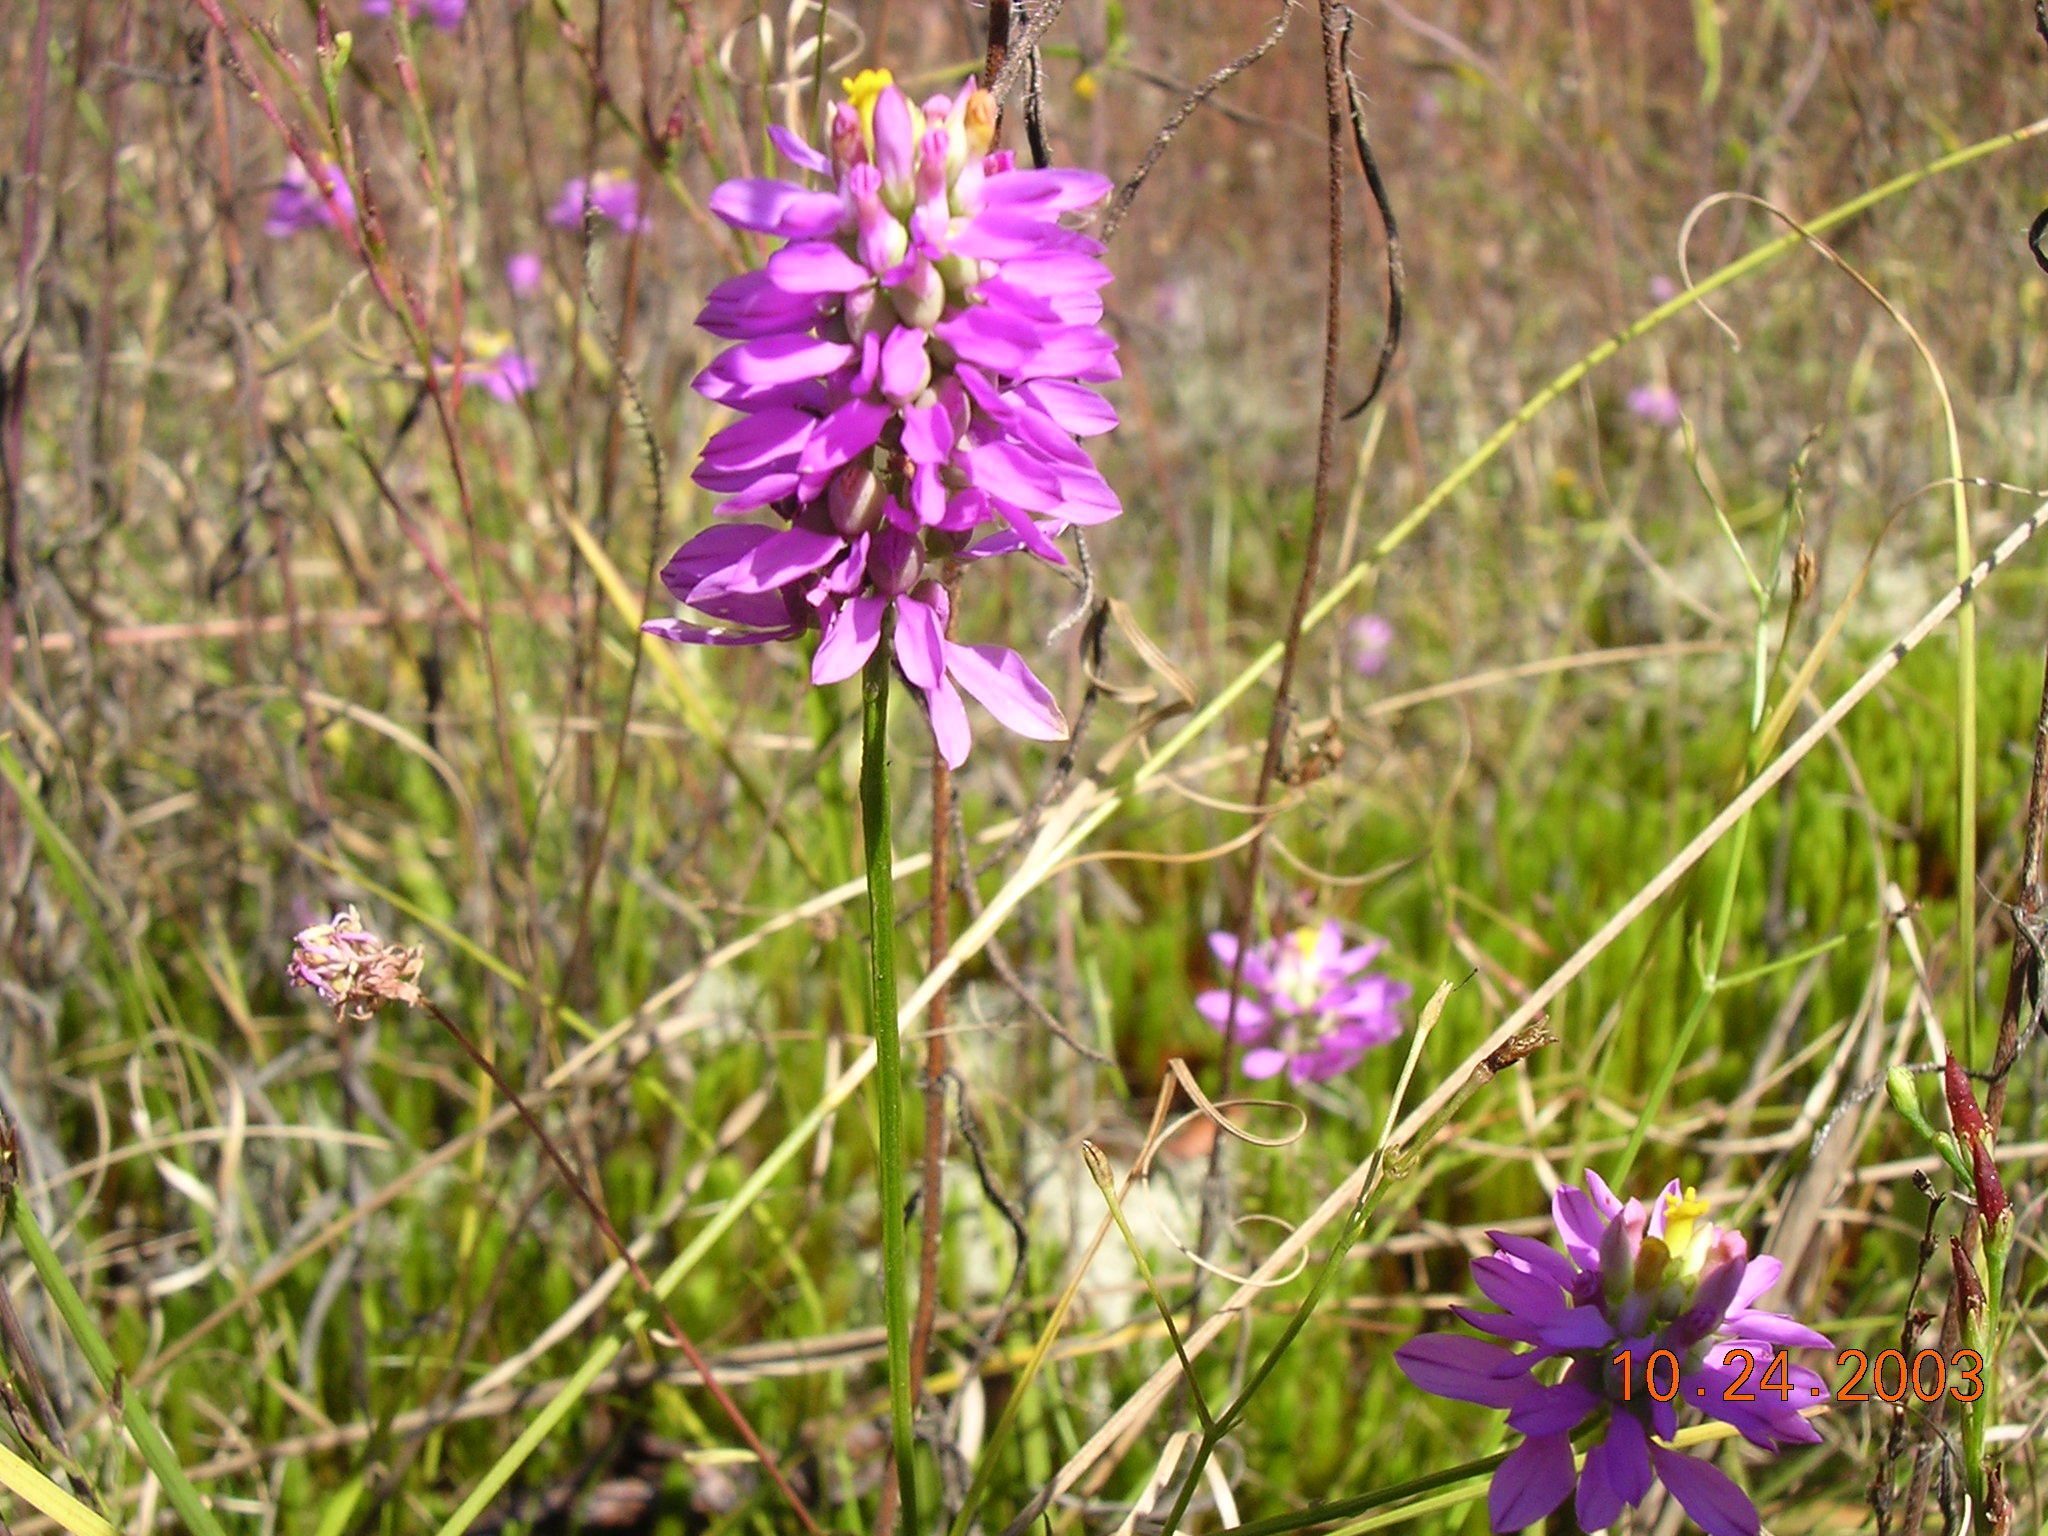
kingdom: Plantae
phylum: Tracheophyta
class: Magnoliopsida
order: Fabales
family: Polygalaceae
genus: Polygala
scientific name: Polygala curtissii
